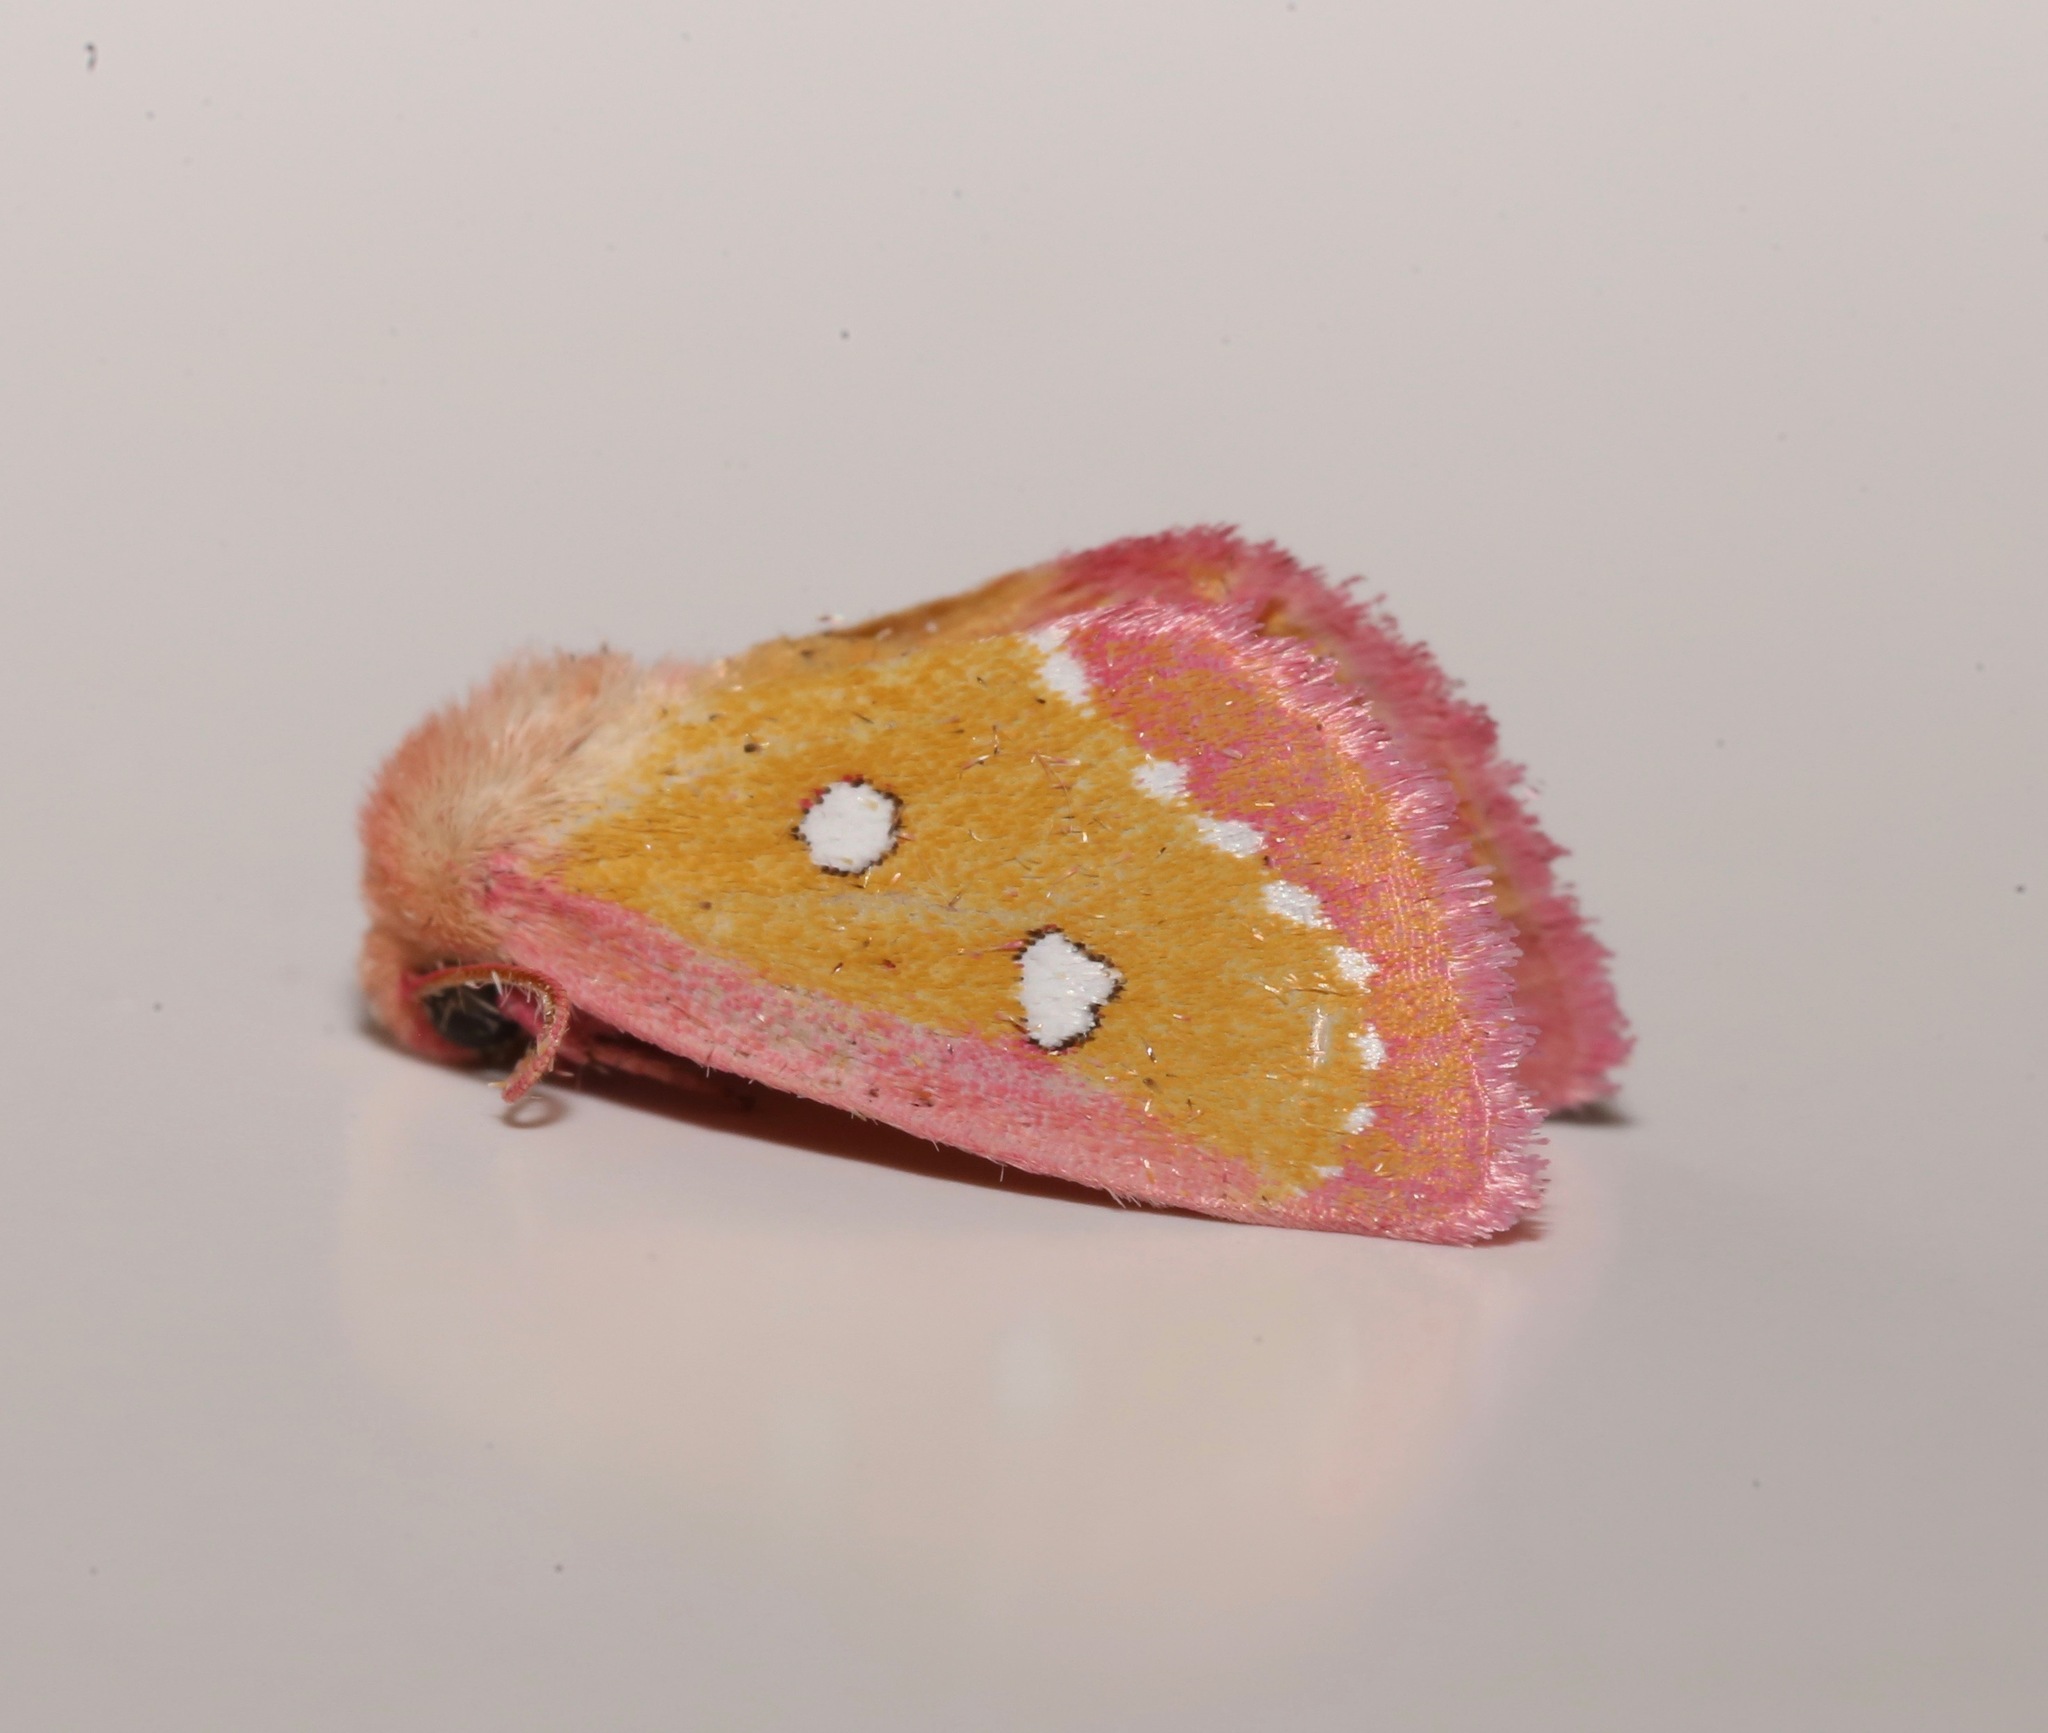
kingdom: Animalia
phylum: Arthropoda
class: Insecta
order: Lepidoptera
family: Noctuidae
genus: Derrima
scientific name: Derrima stellata
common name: Pink star moth
